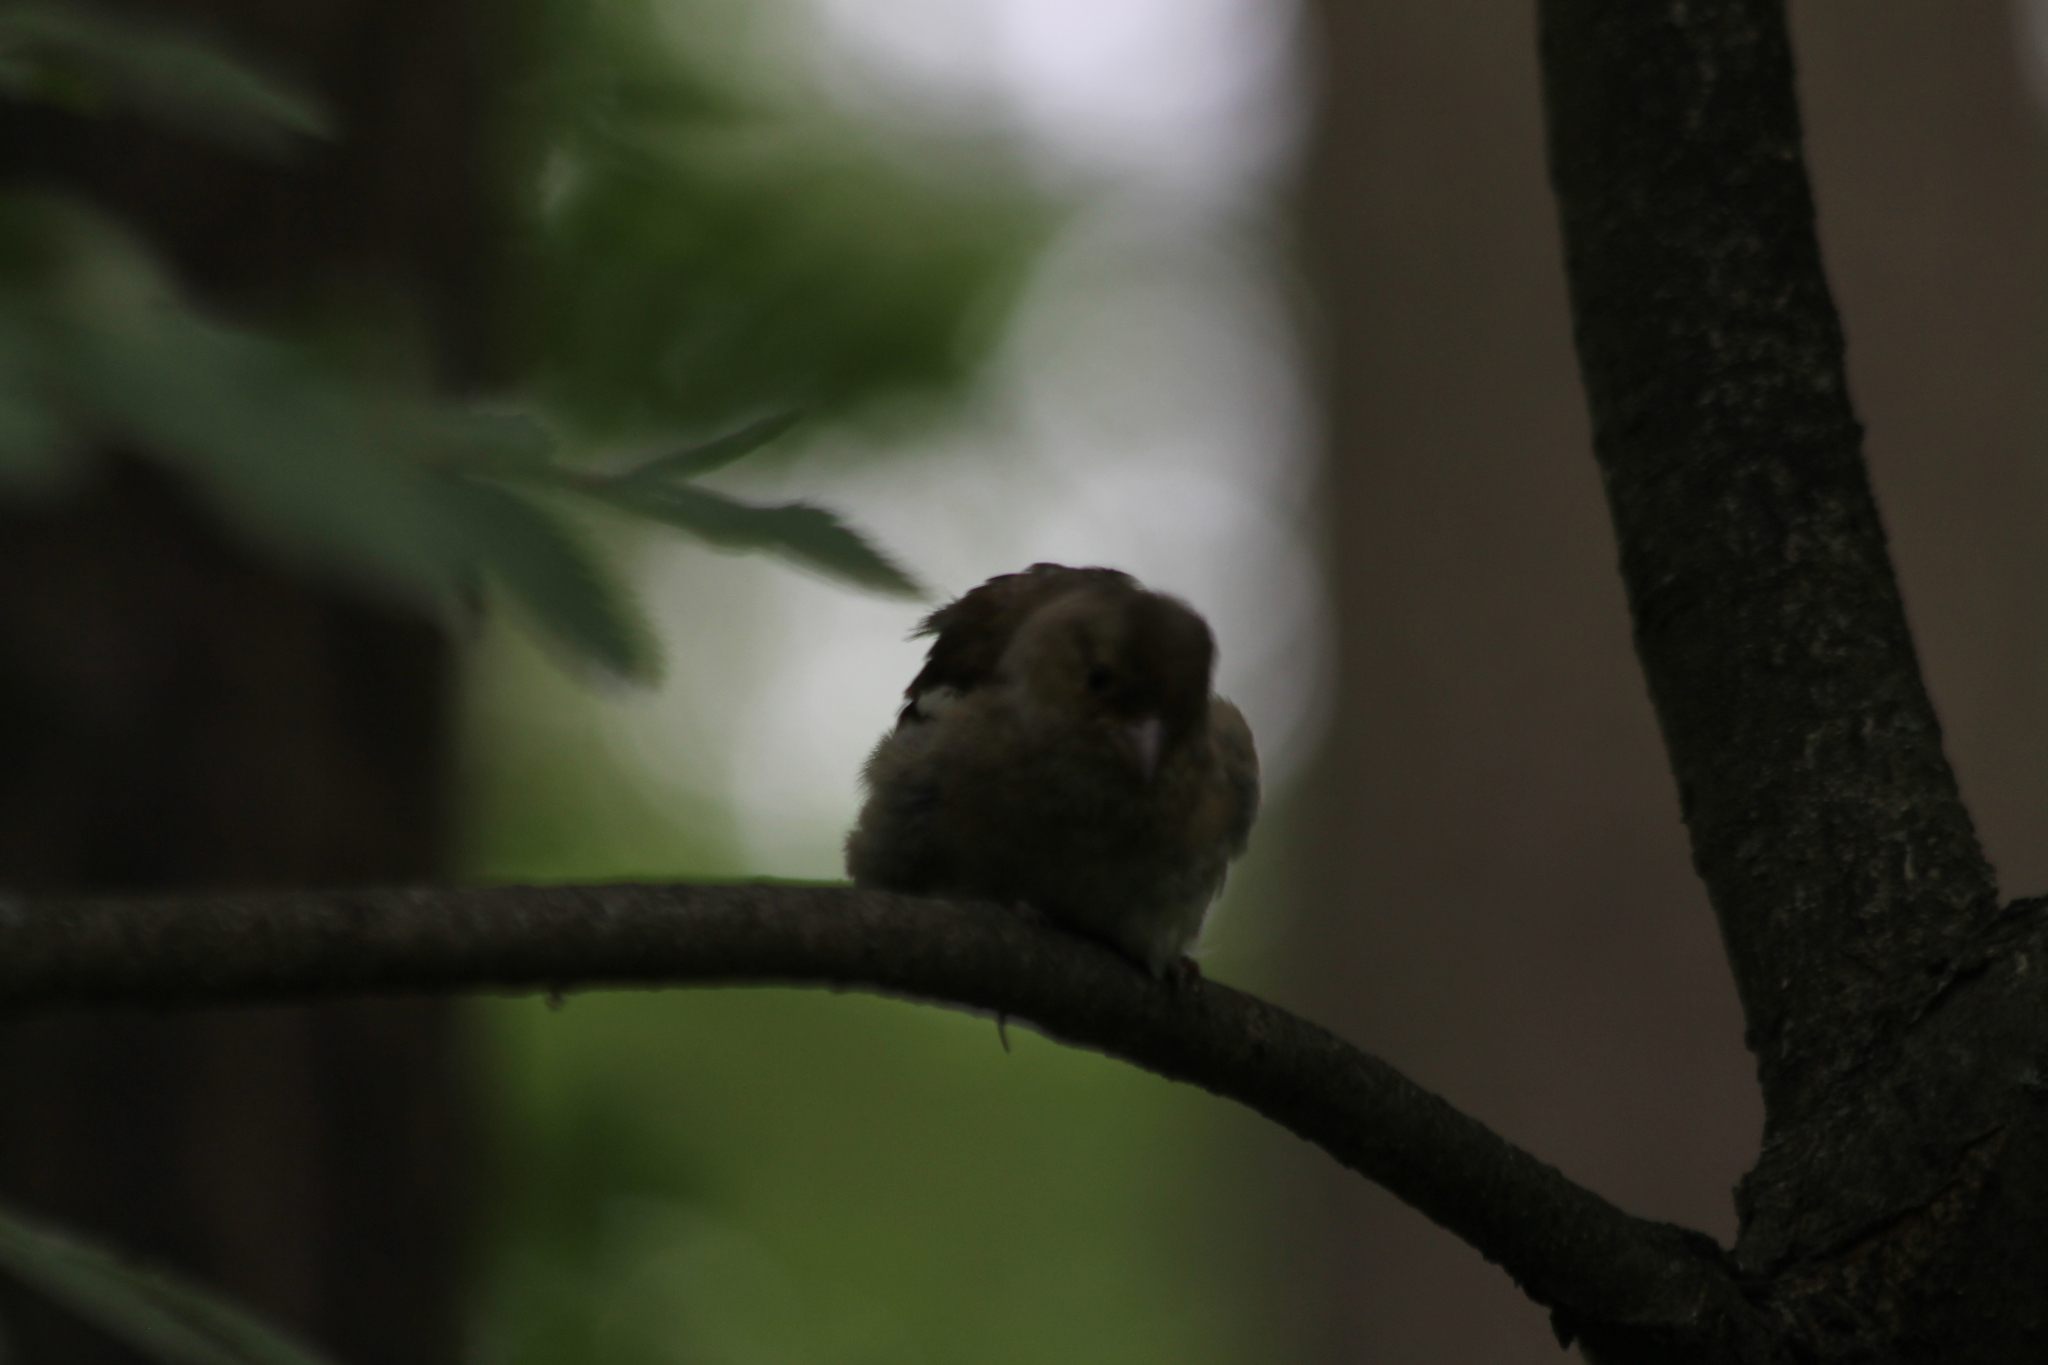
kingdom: Animalia
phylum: Chordata
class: Aves
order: Passeriformes
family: Fringillidae
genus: Fringilla
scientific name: Fringilla coelebs
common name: Common chaffinch
